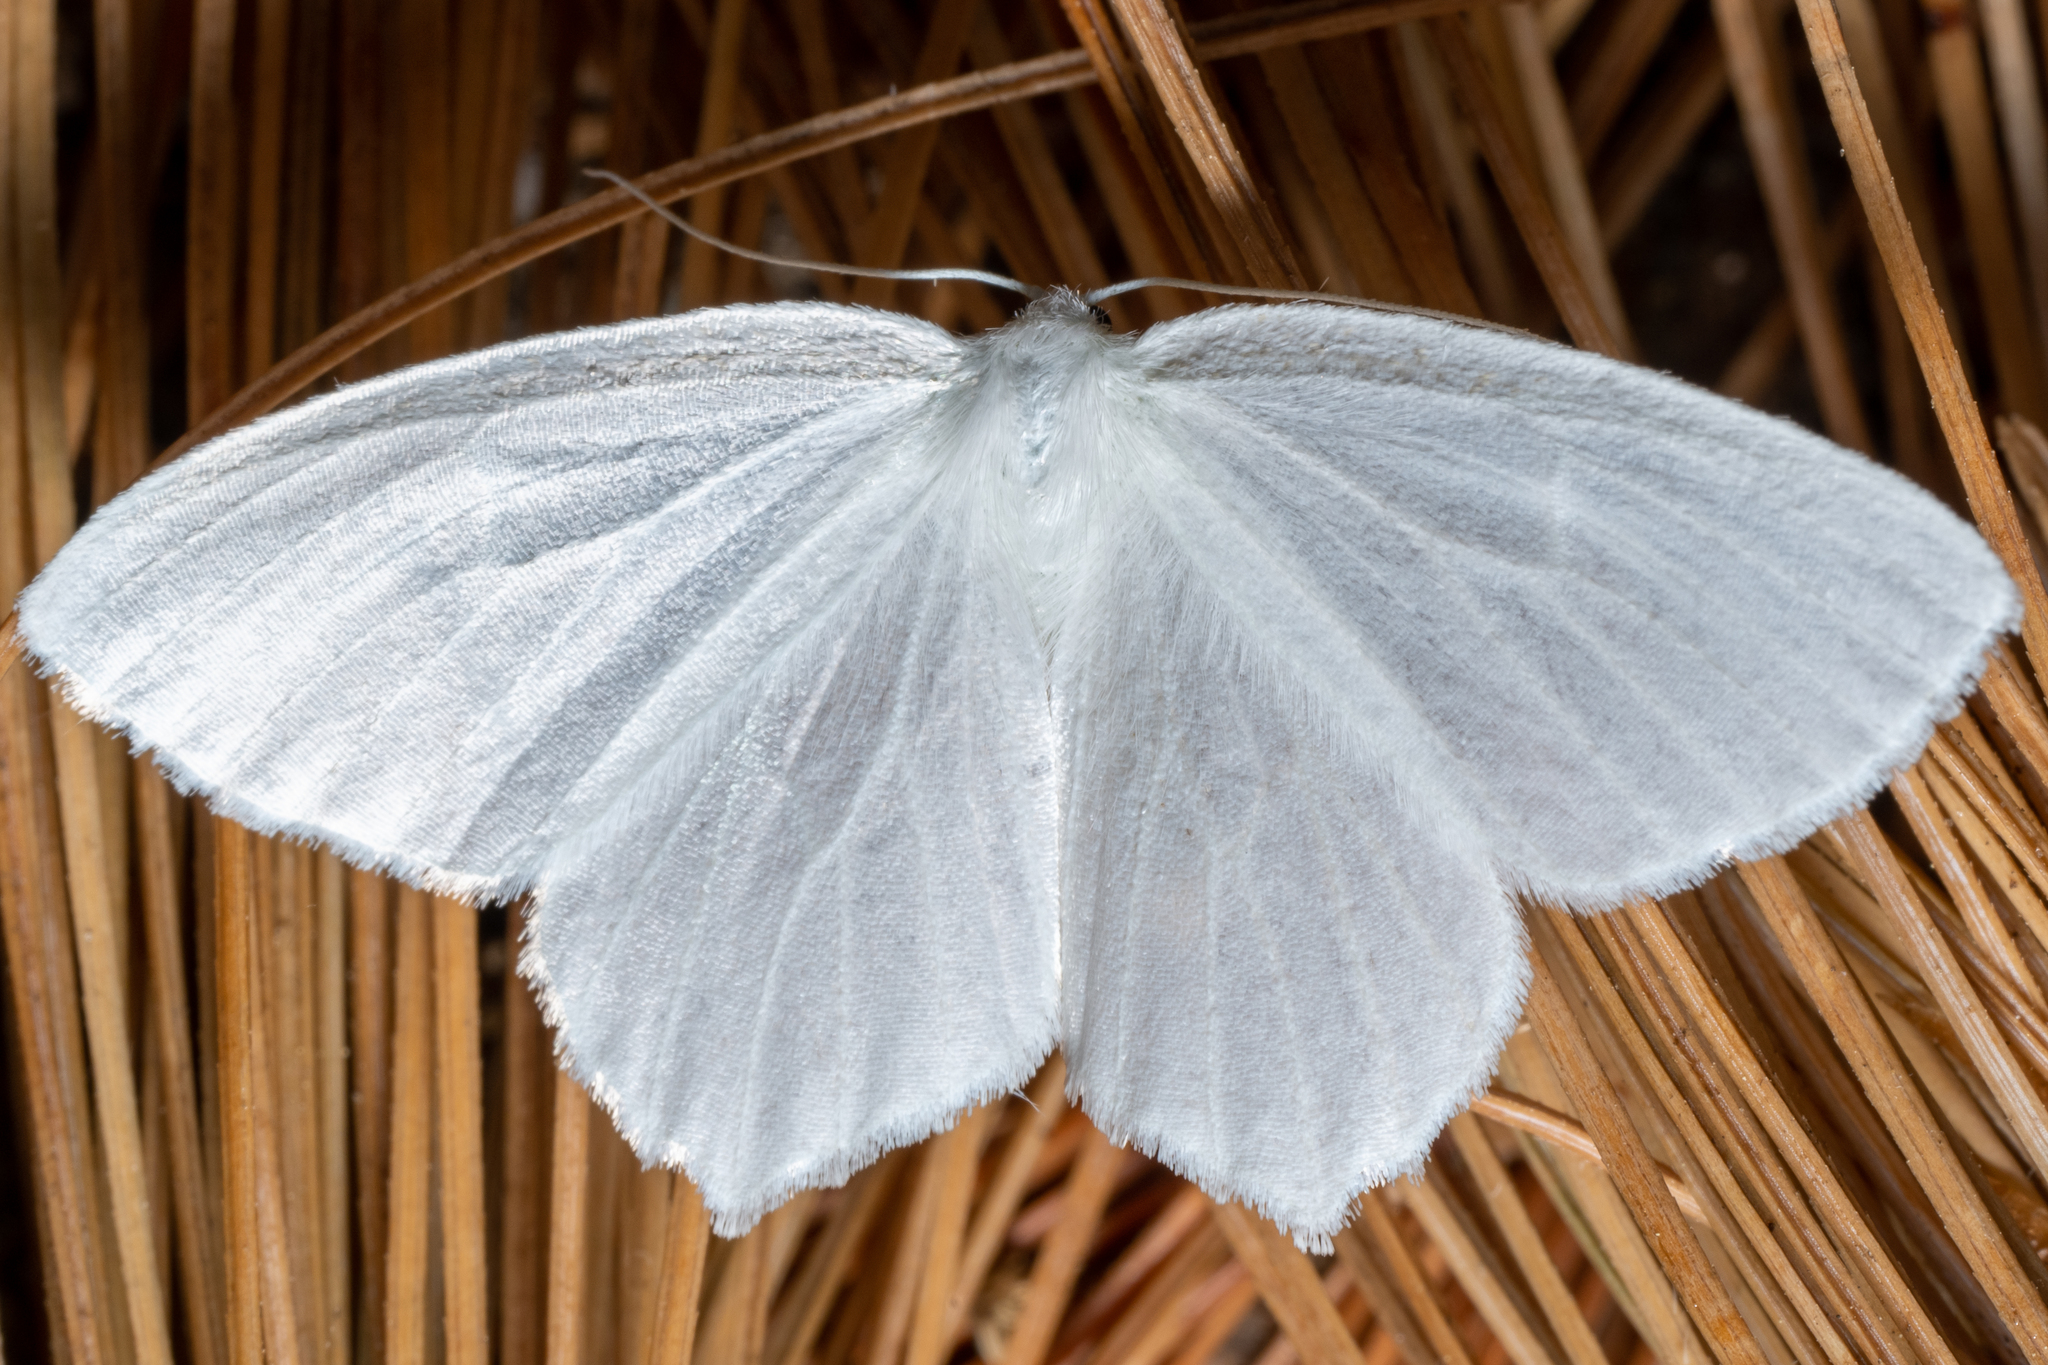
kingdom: Animalia
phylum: Arthropoda
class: Insecta
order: Lepidoptera
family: Geometridae
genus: Eugonobapta
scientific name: Eugonobapta nivosaria
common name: Snowy geometer
